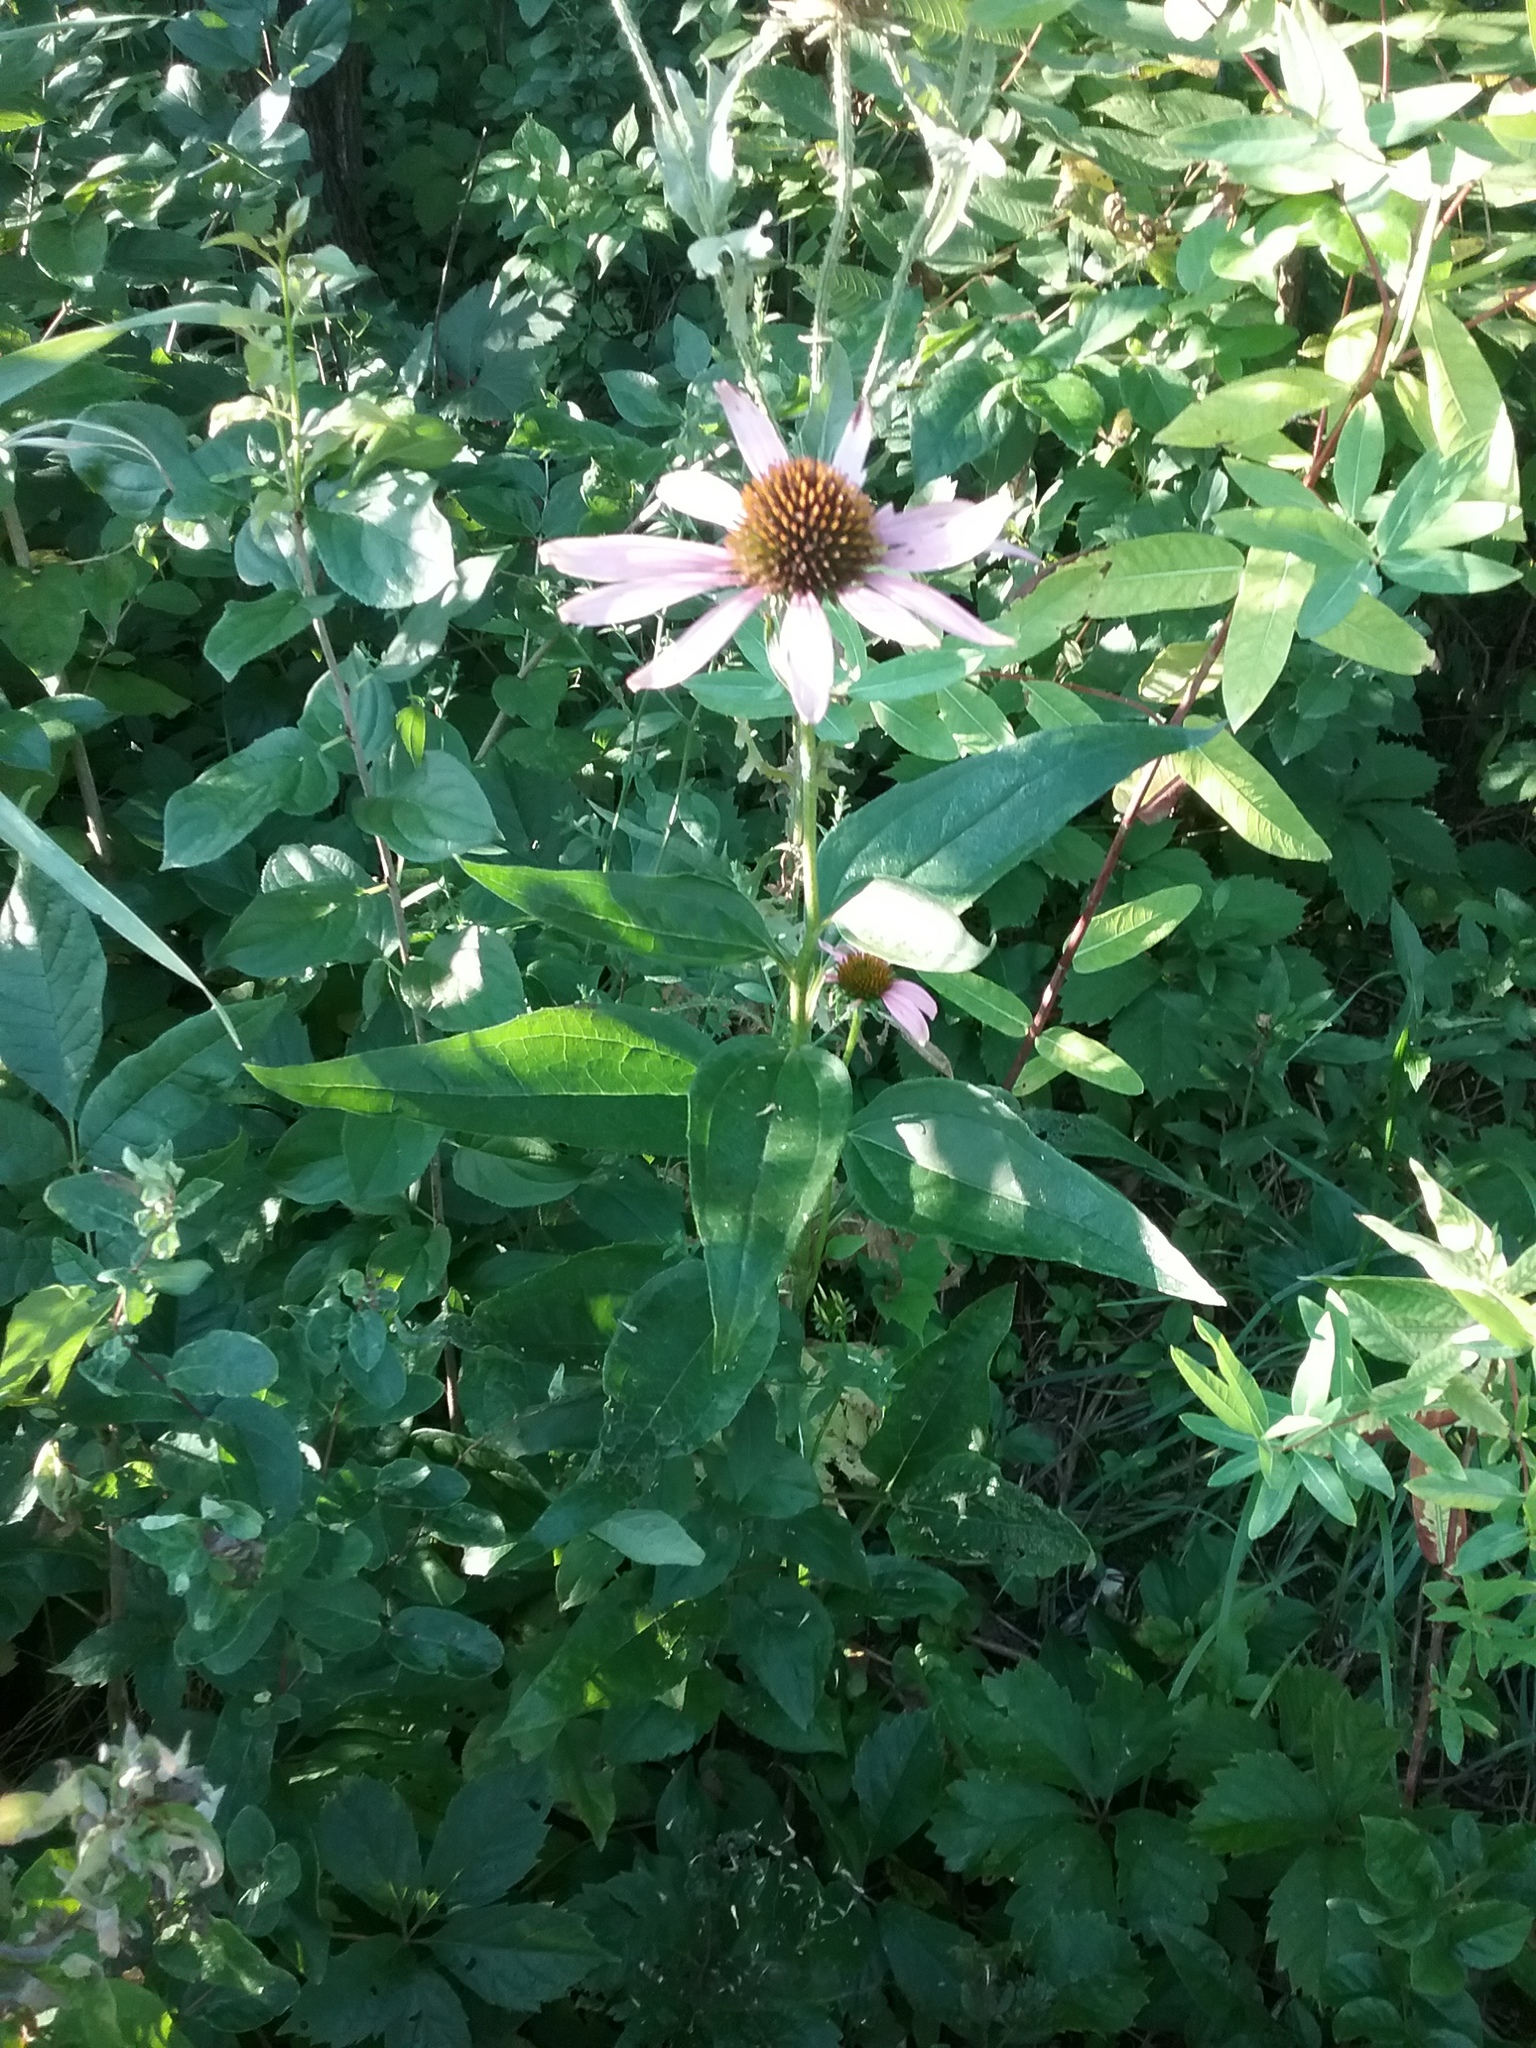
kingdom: Plantae
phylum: Tracheophyta
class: Magnoliopsida
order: Asterales
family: Asteraceae
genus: Echinacea
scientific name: Echinacea purpurea
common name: Broad-leaved purple coneflower
